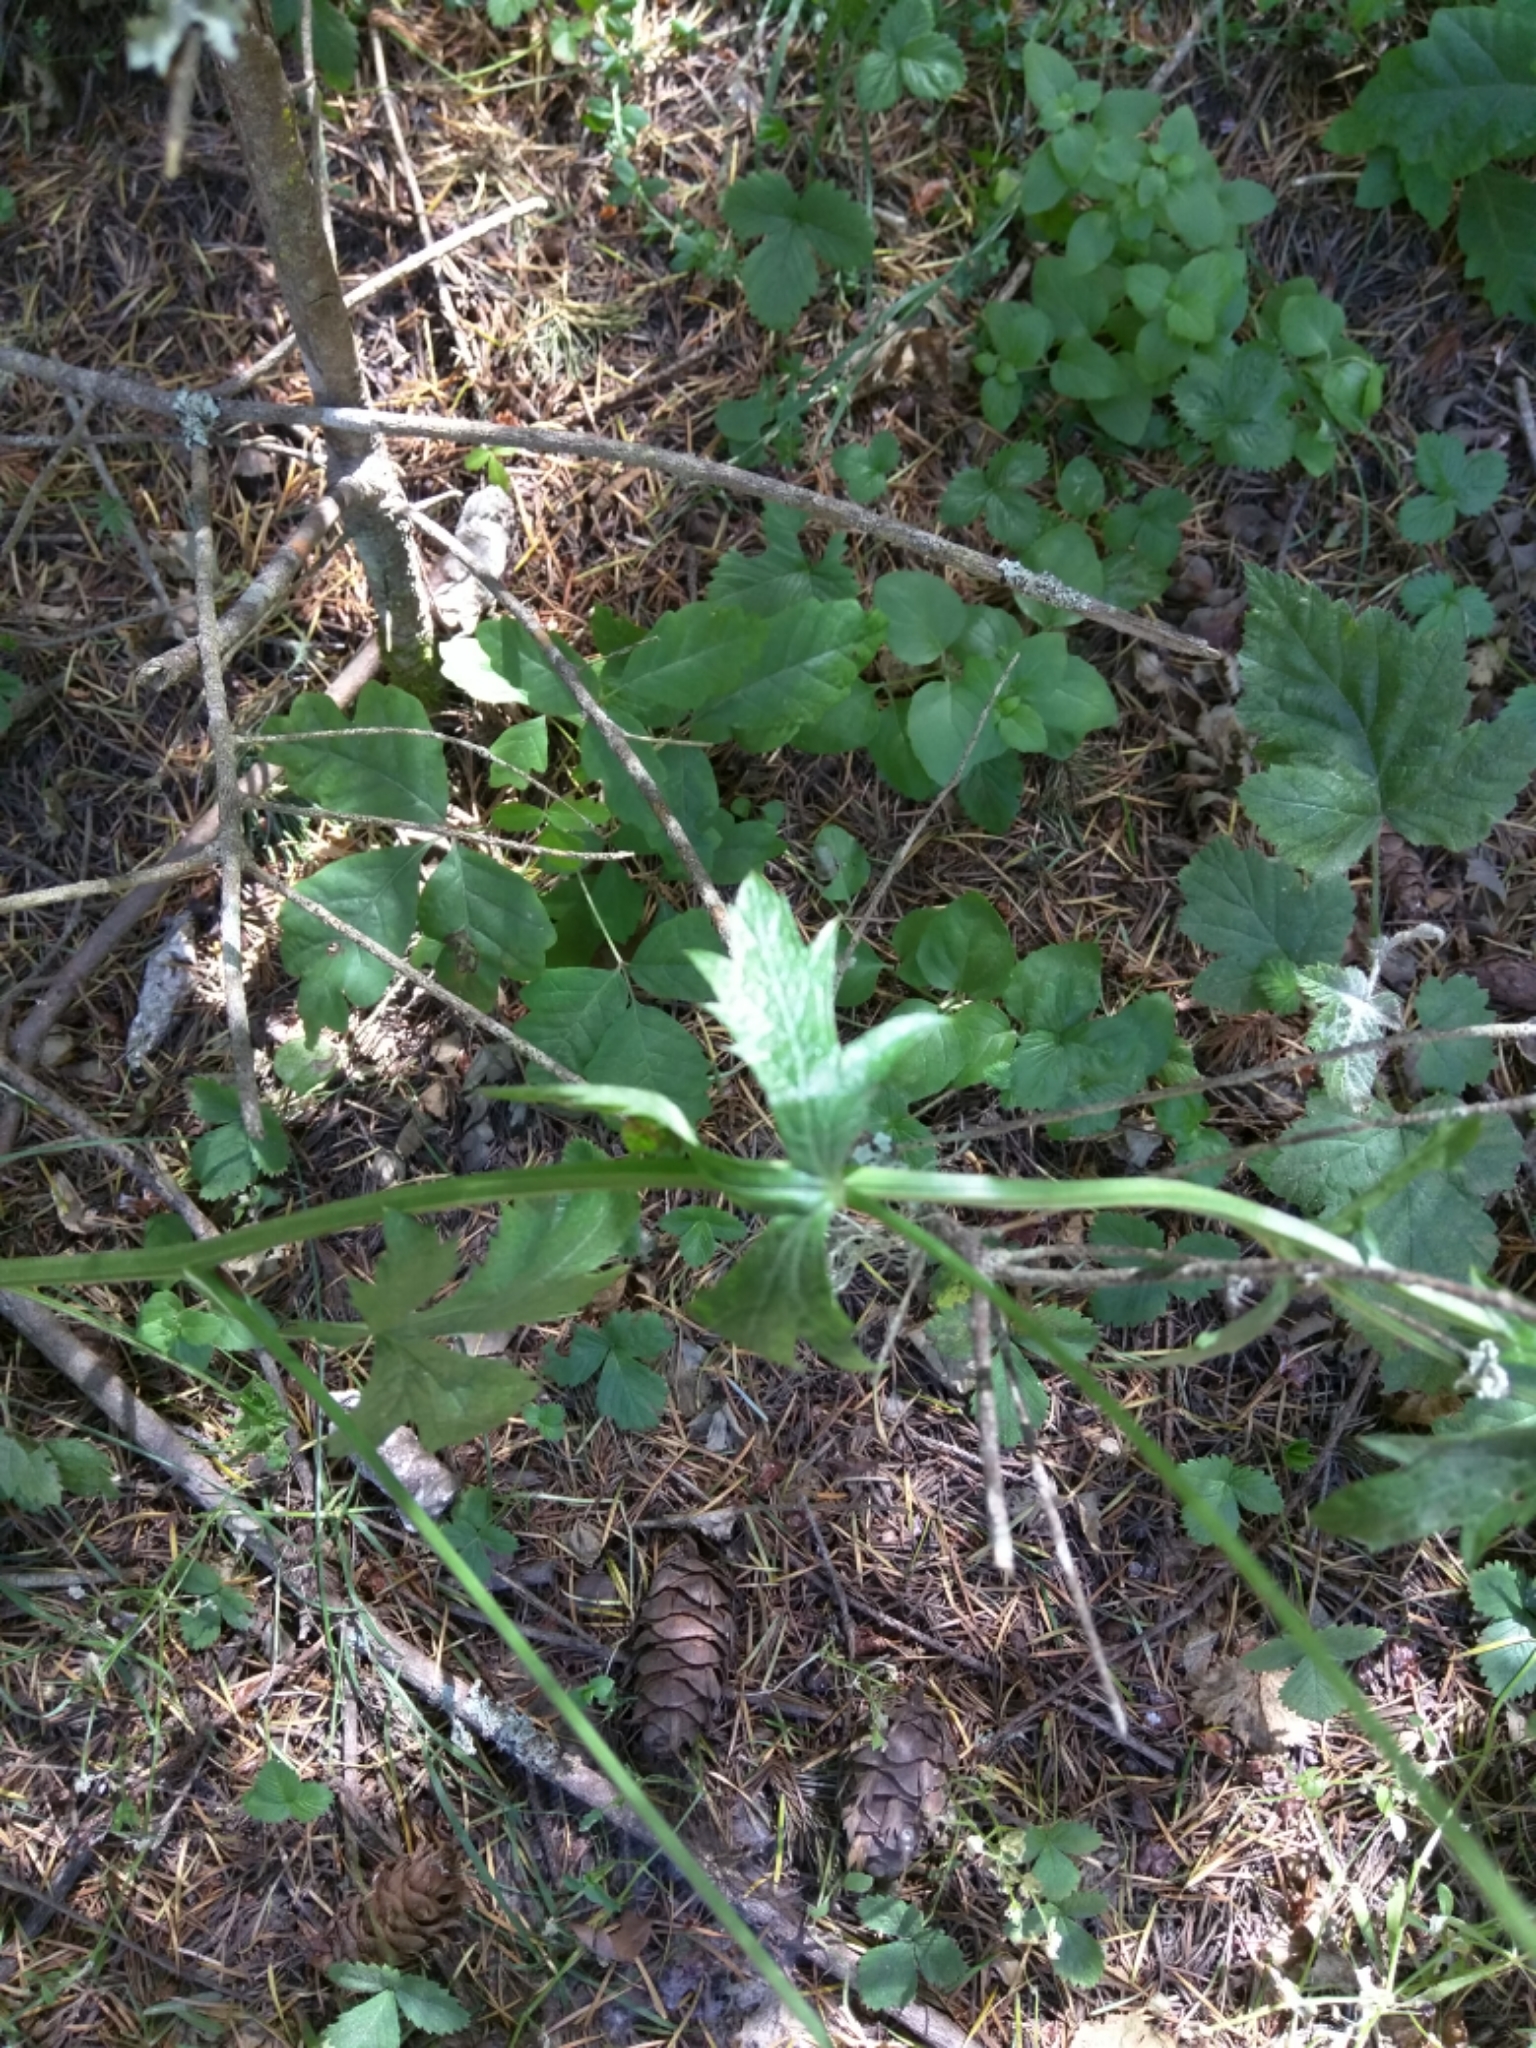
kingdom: Plantae
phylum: Tracheophyta
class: Magnoliopsida
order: Apiales
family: Apiaceae
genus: Sanicula
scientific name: Sanicula crassicaulis
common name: Western snakeroot
